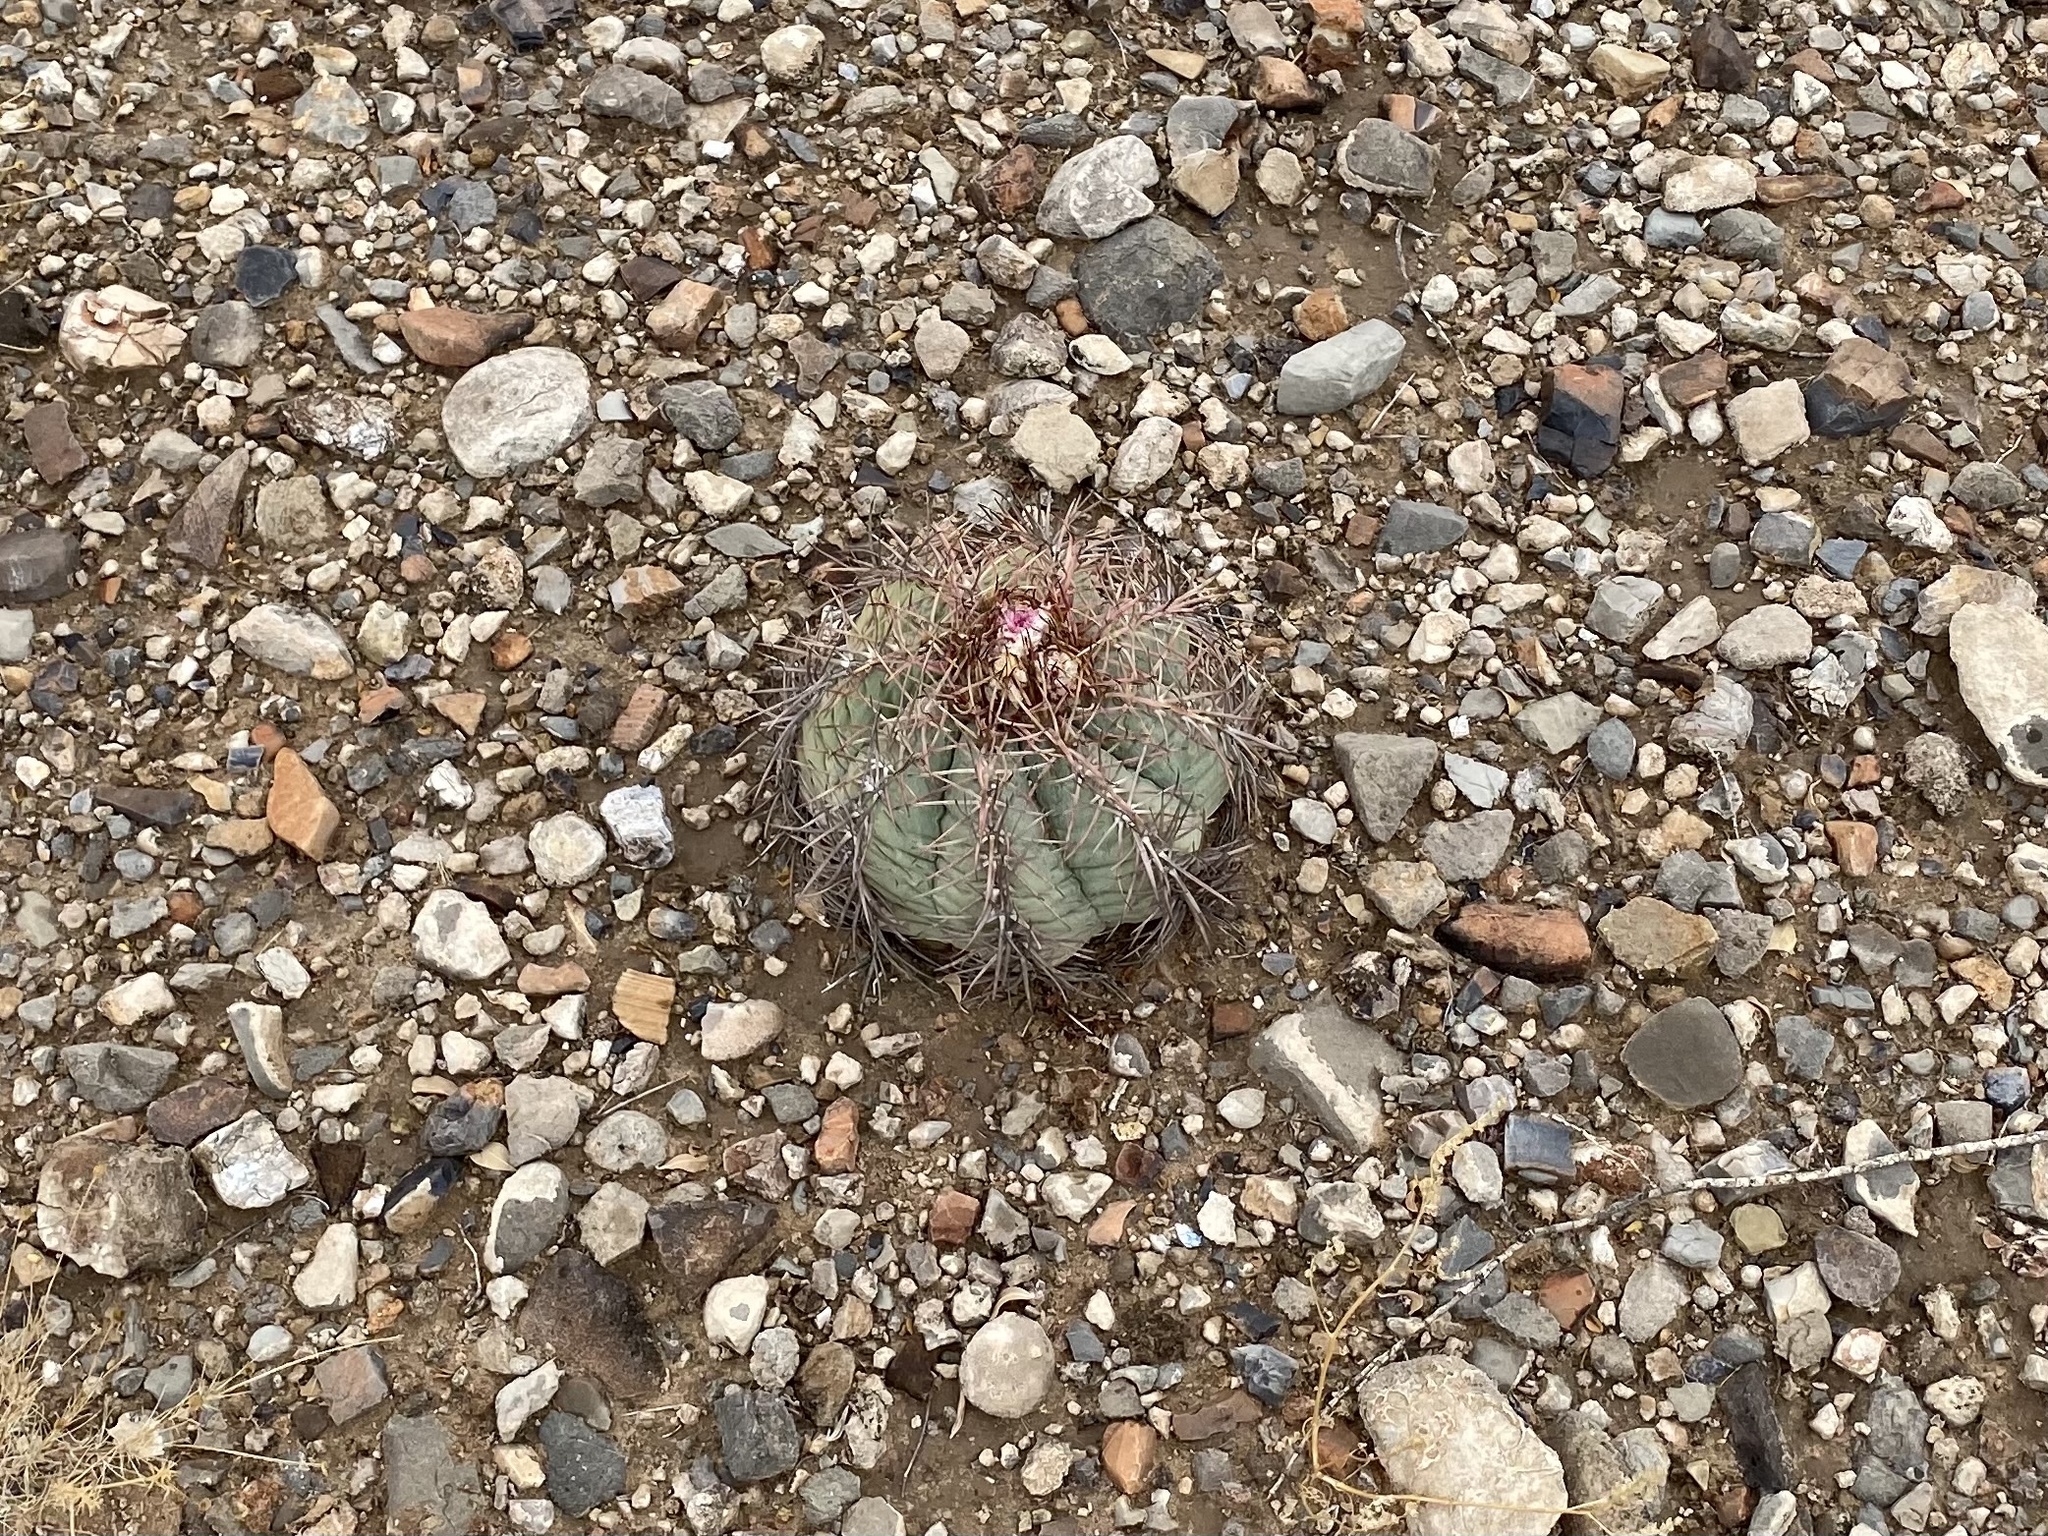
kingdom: Plantae
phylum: Tracheophyta
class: Magnoliopsida
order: Caryophyllales
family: Cactaceae
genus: Echinocactus
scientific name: Echinocactus horizonthalonius
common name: Devilshead
